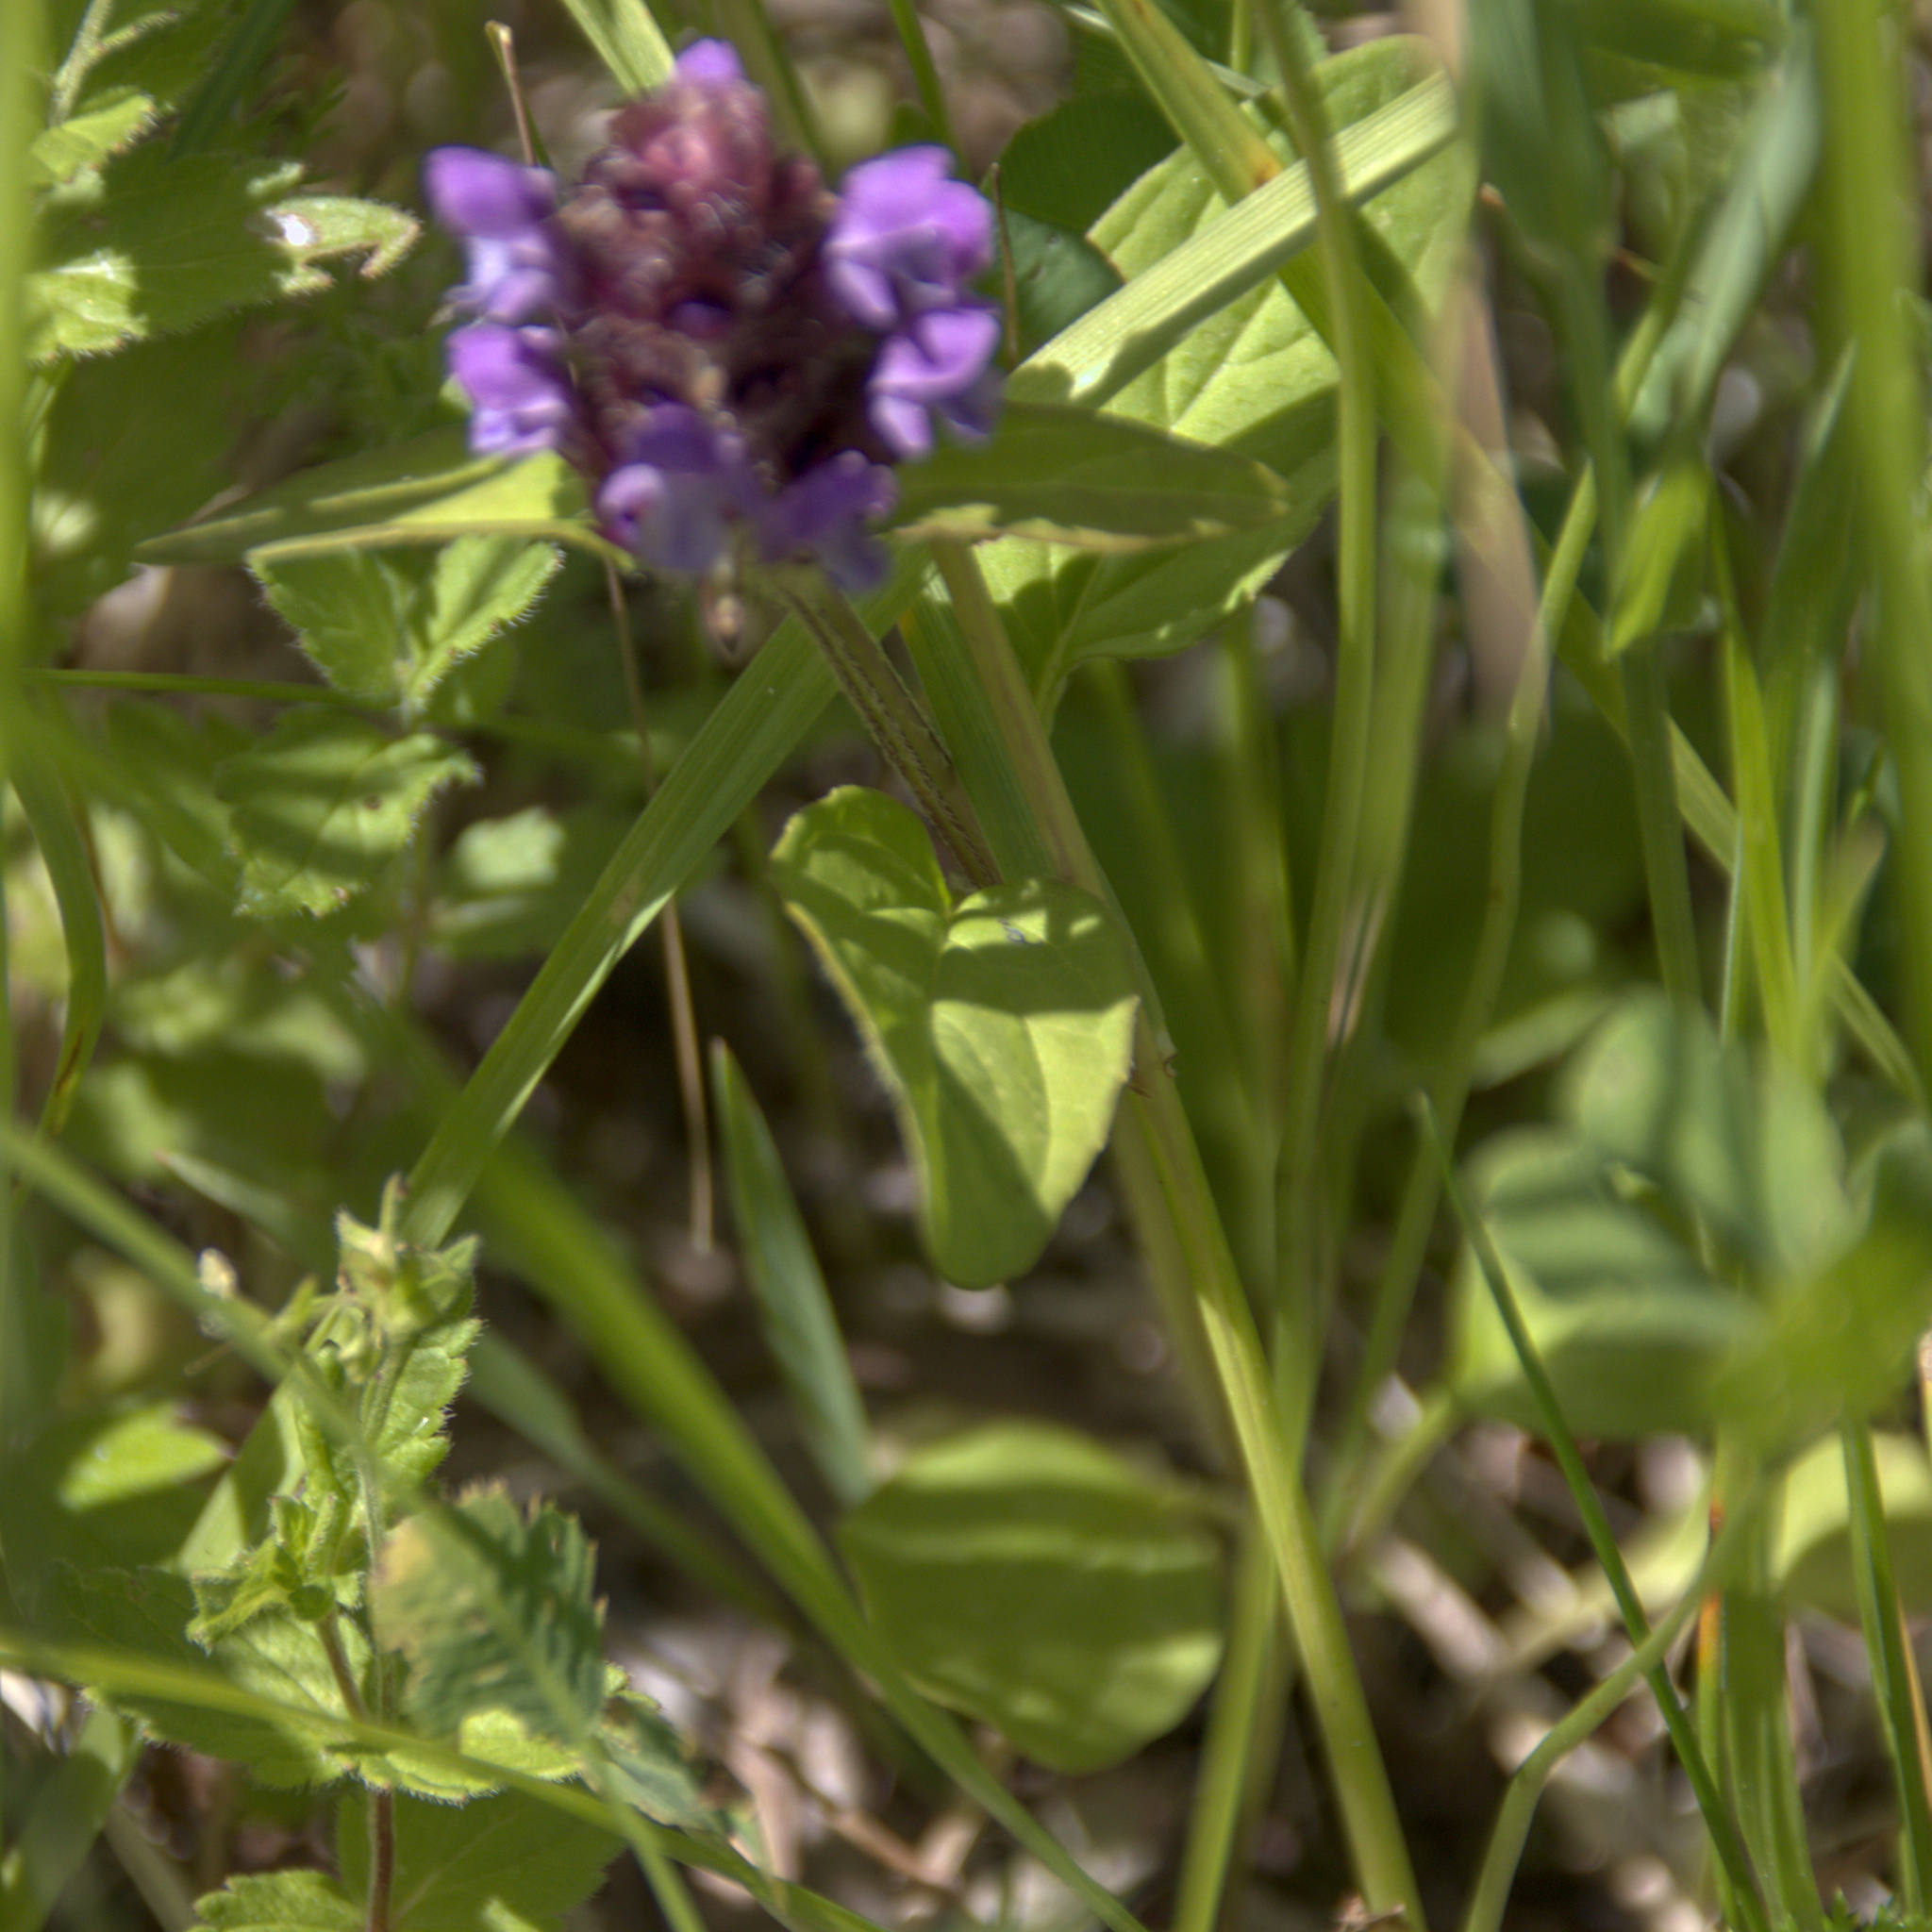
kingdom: Plantae
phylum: Tracheophyta
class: Magnoliopsida
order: Lamiales
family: Lamiaceae
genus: Prunella
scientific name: Prunella vulgaris
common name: Heal-all
